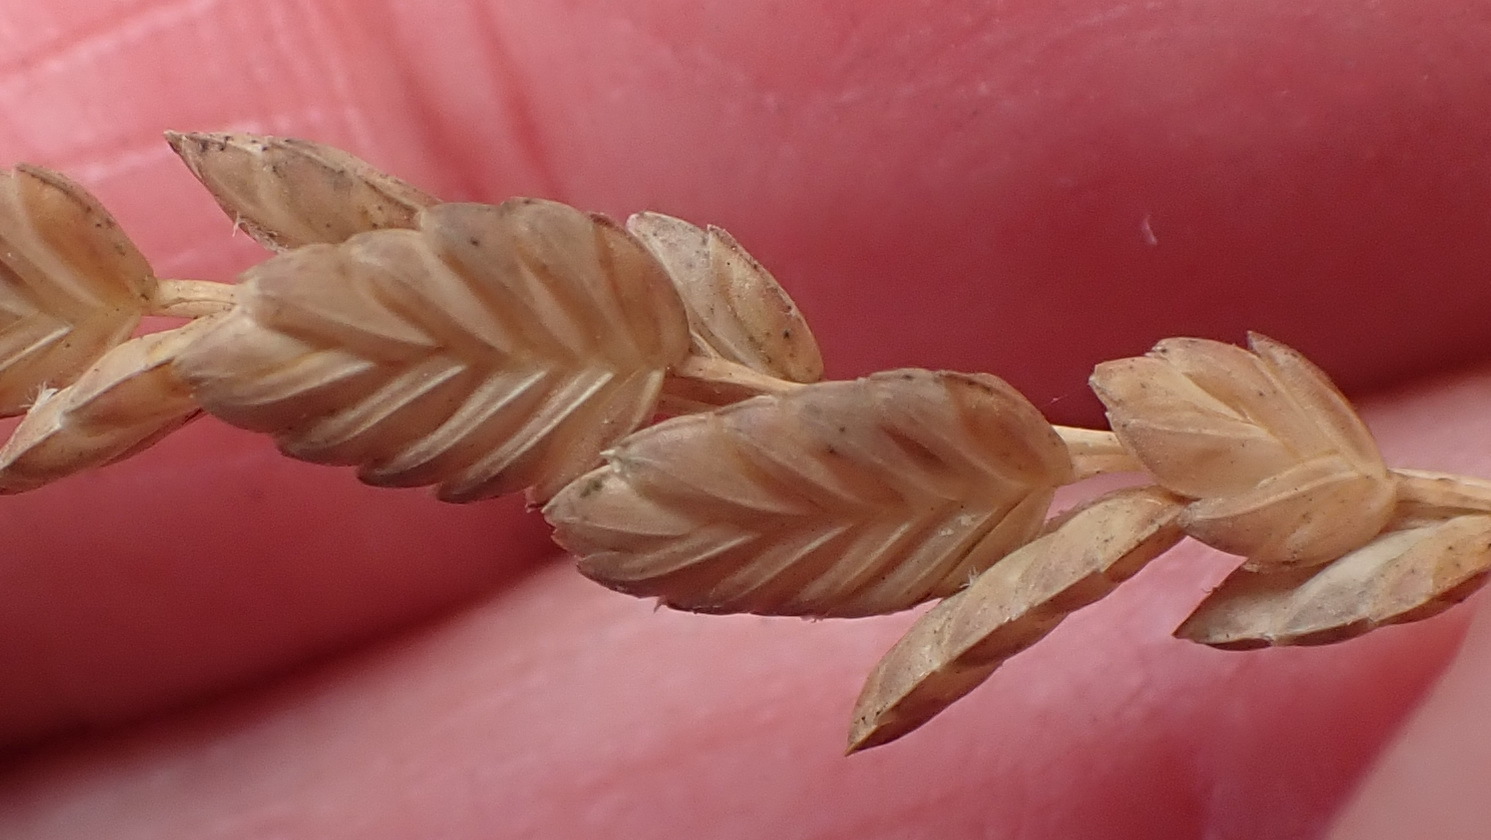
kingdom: Plantae
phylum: Tracheophyta
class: Liliopsida
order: Poales
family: Poaceae
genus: Eragrostis
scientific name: Eragrostis superba
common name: Wilman lovegrass
